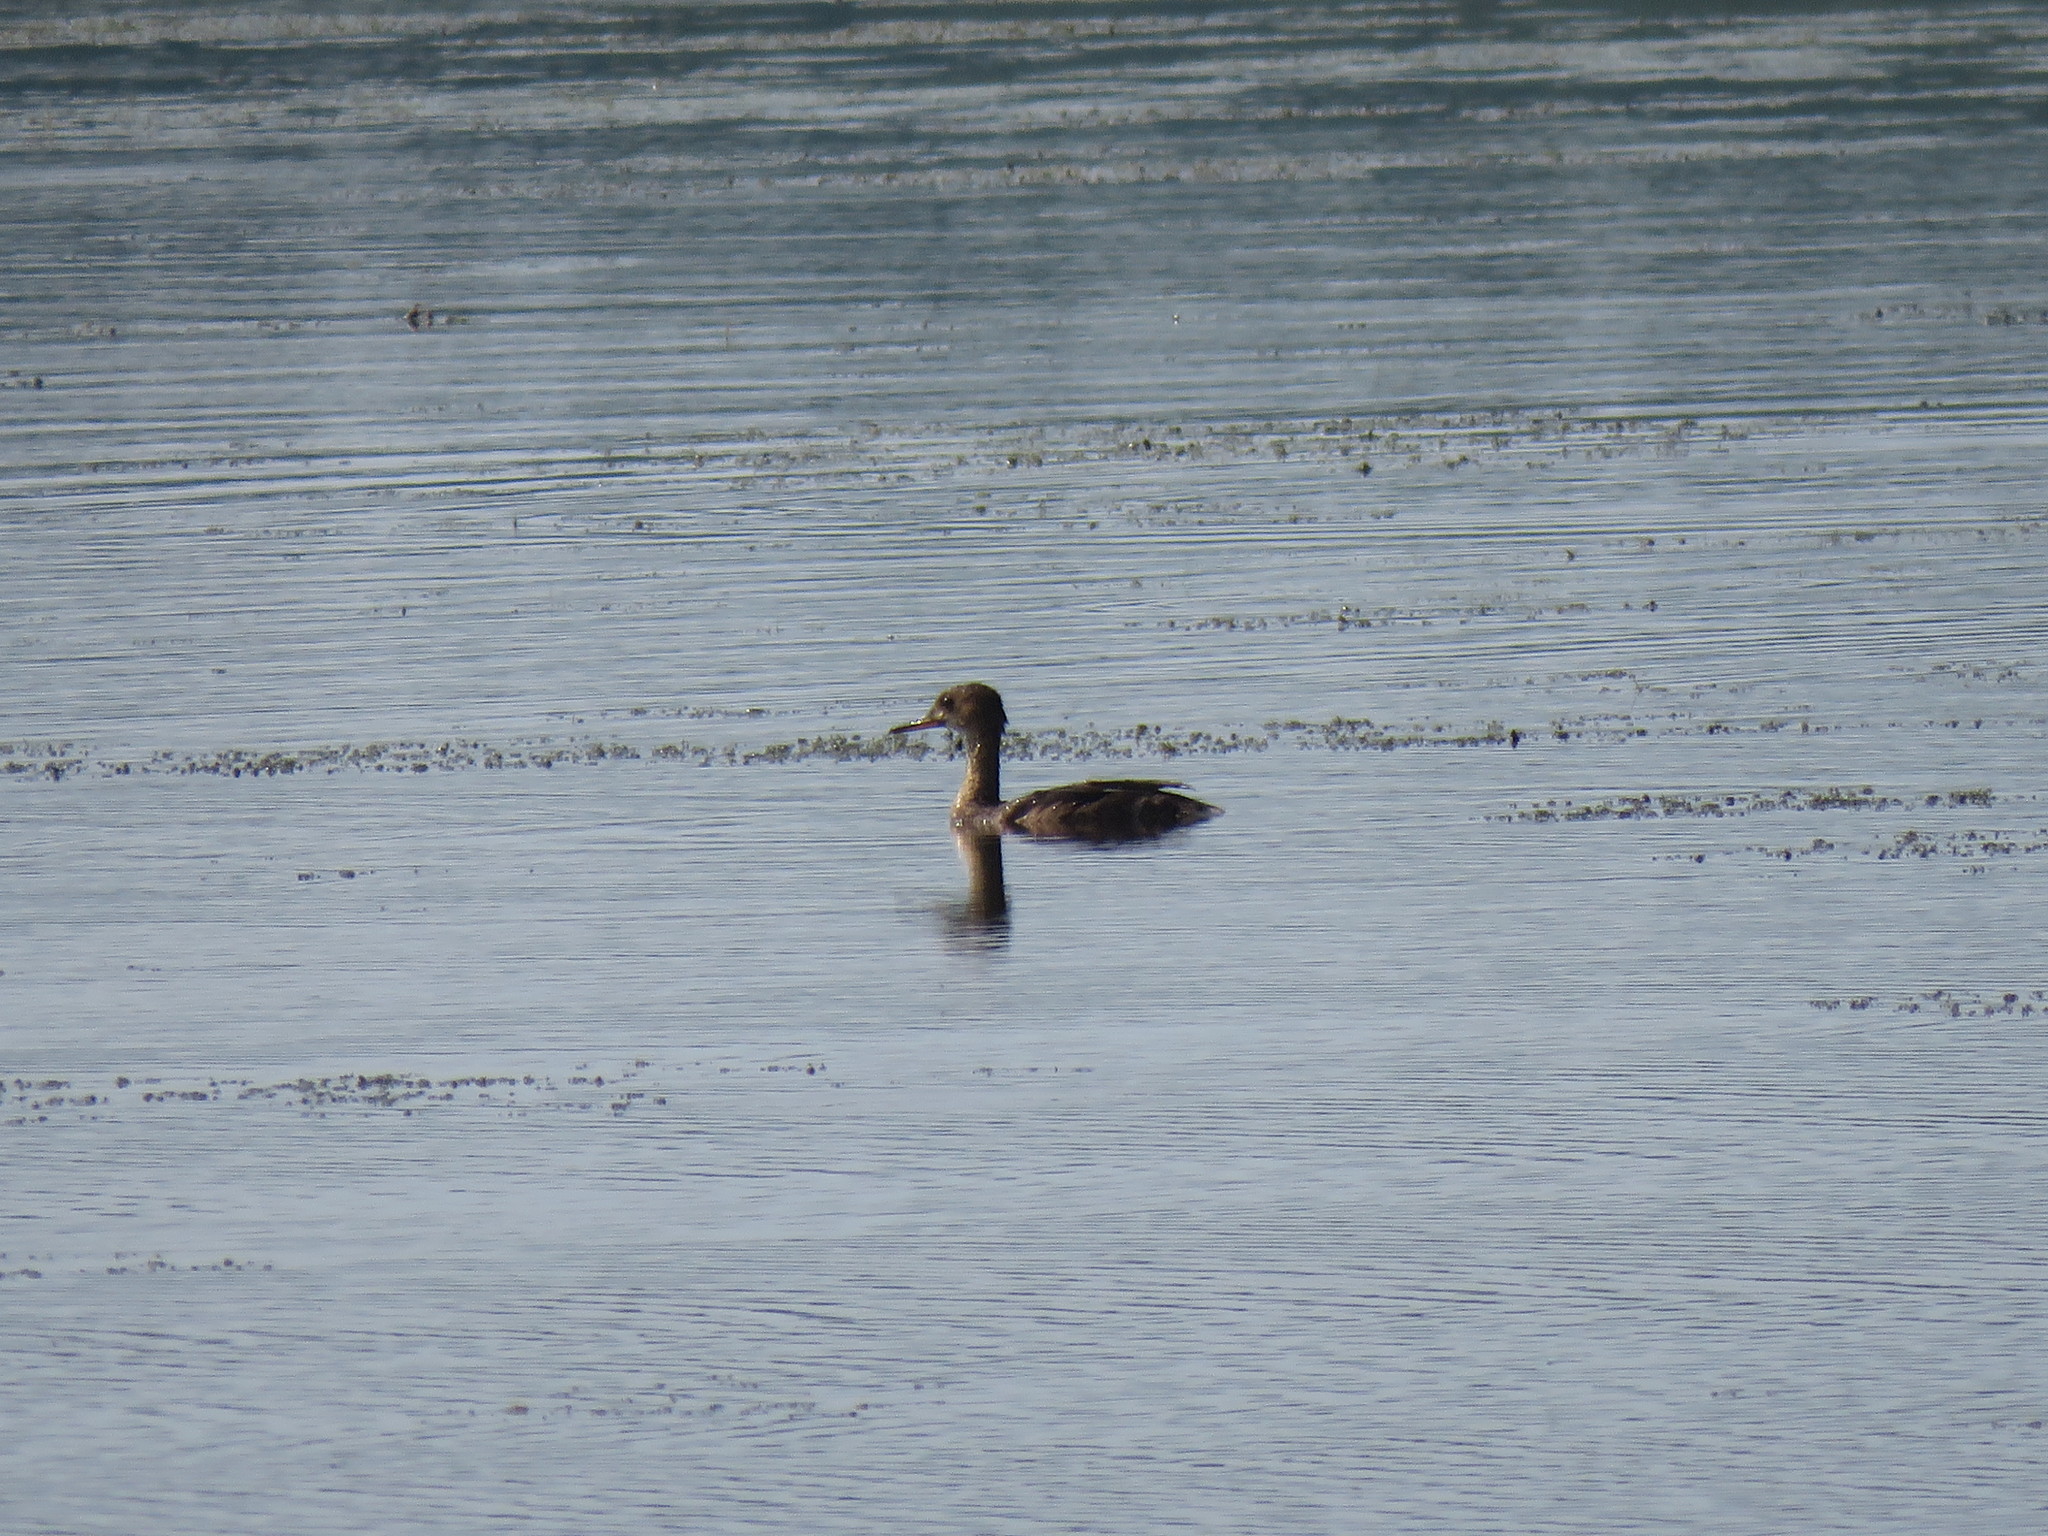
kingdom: Animalia
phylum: Chordata
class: Aves
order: Anseriformes
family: Anatidae
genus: Lophodytes
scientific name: Lophodytes cucullatus
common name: Hooded merganser
